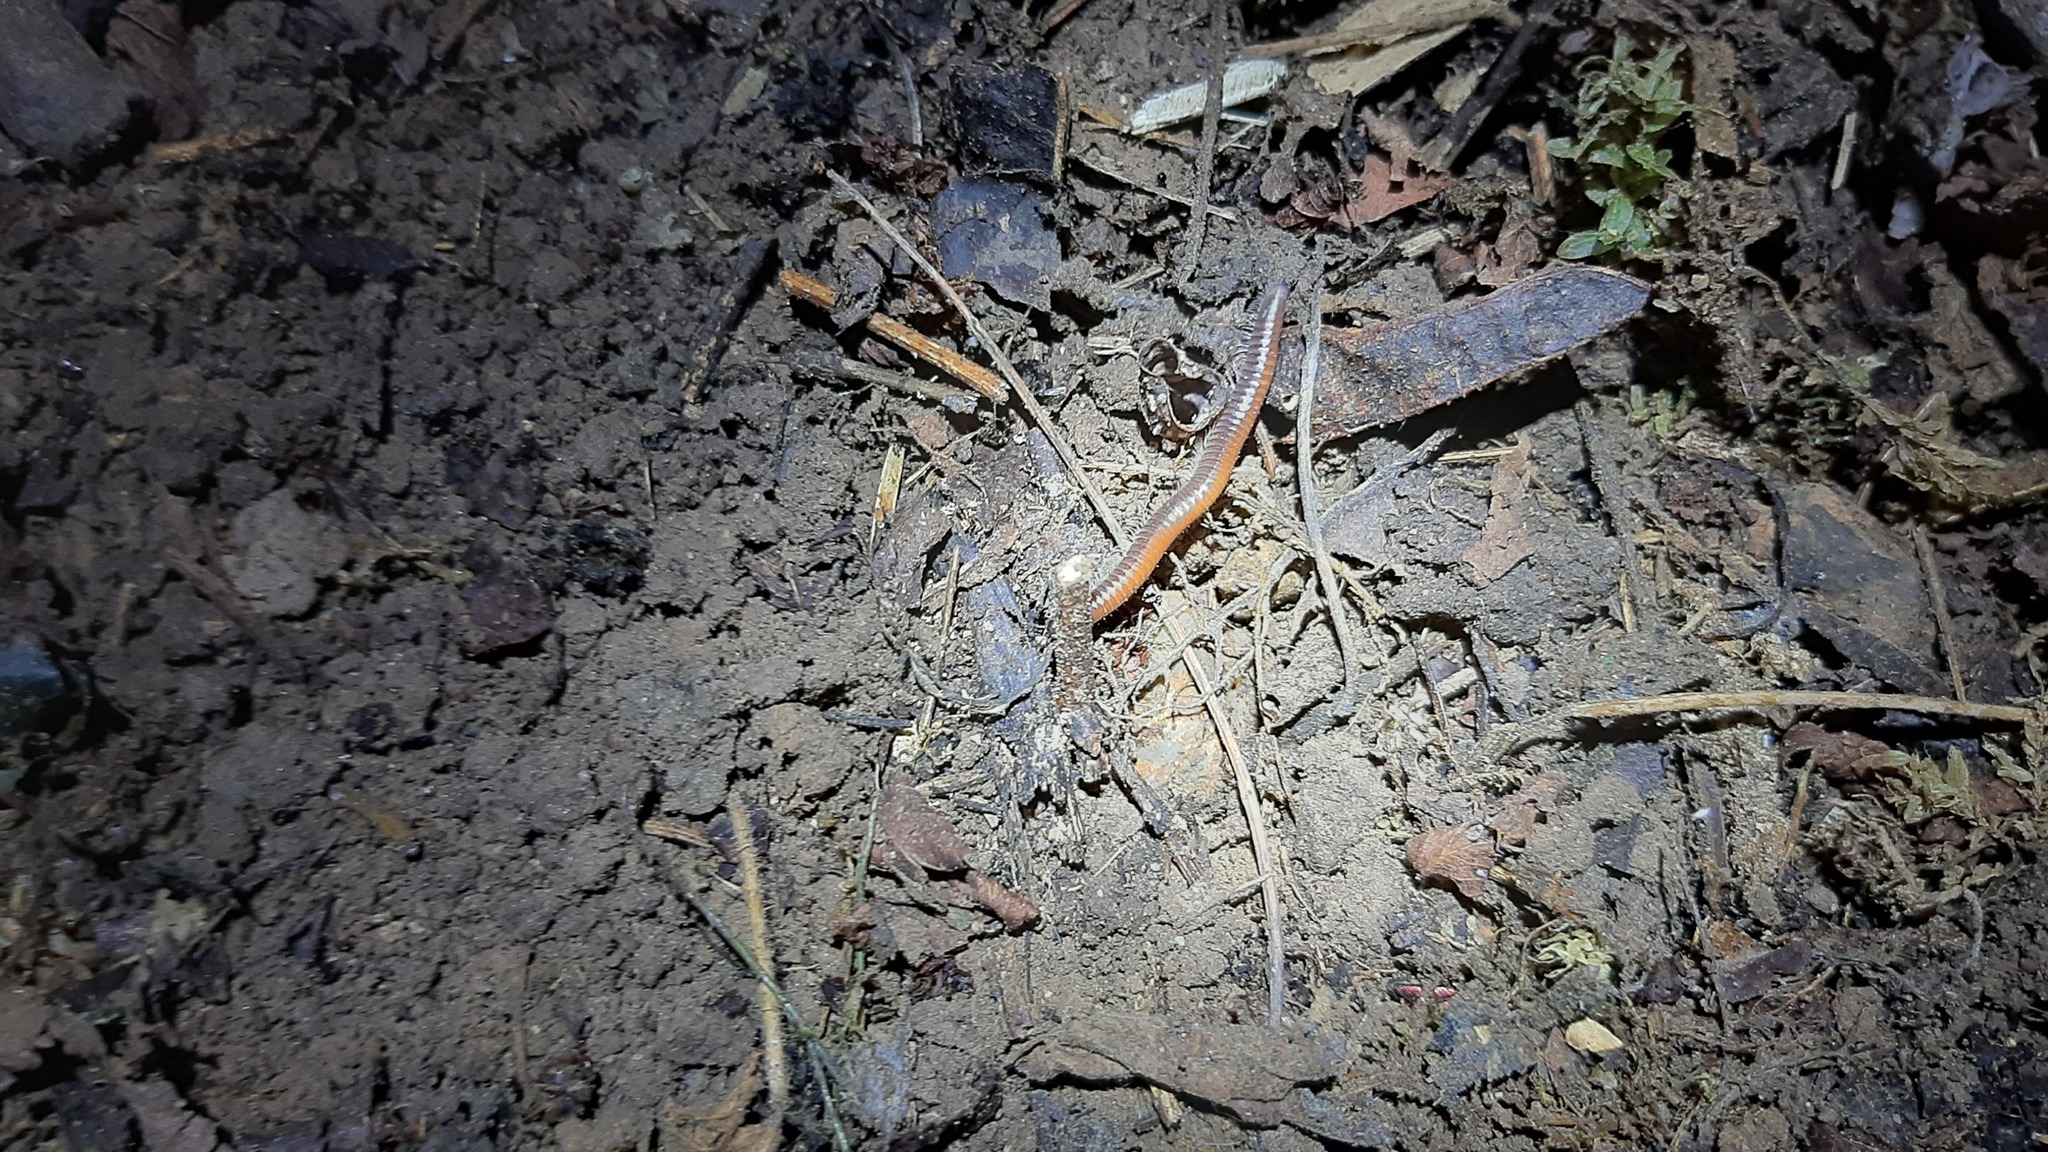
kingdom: Animalia
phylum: Arthropoda
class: Diplopoda
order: Julida
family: Julidae
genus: Ophyiulus
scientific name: Ophyiulus rubrodorsalis
